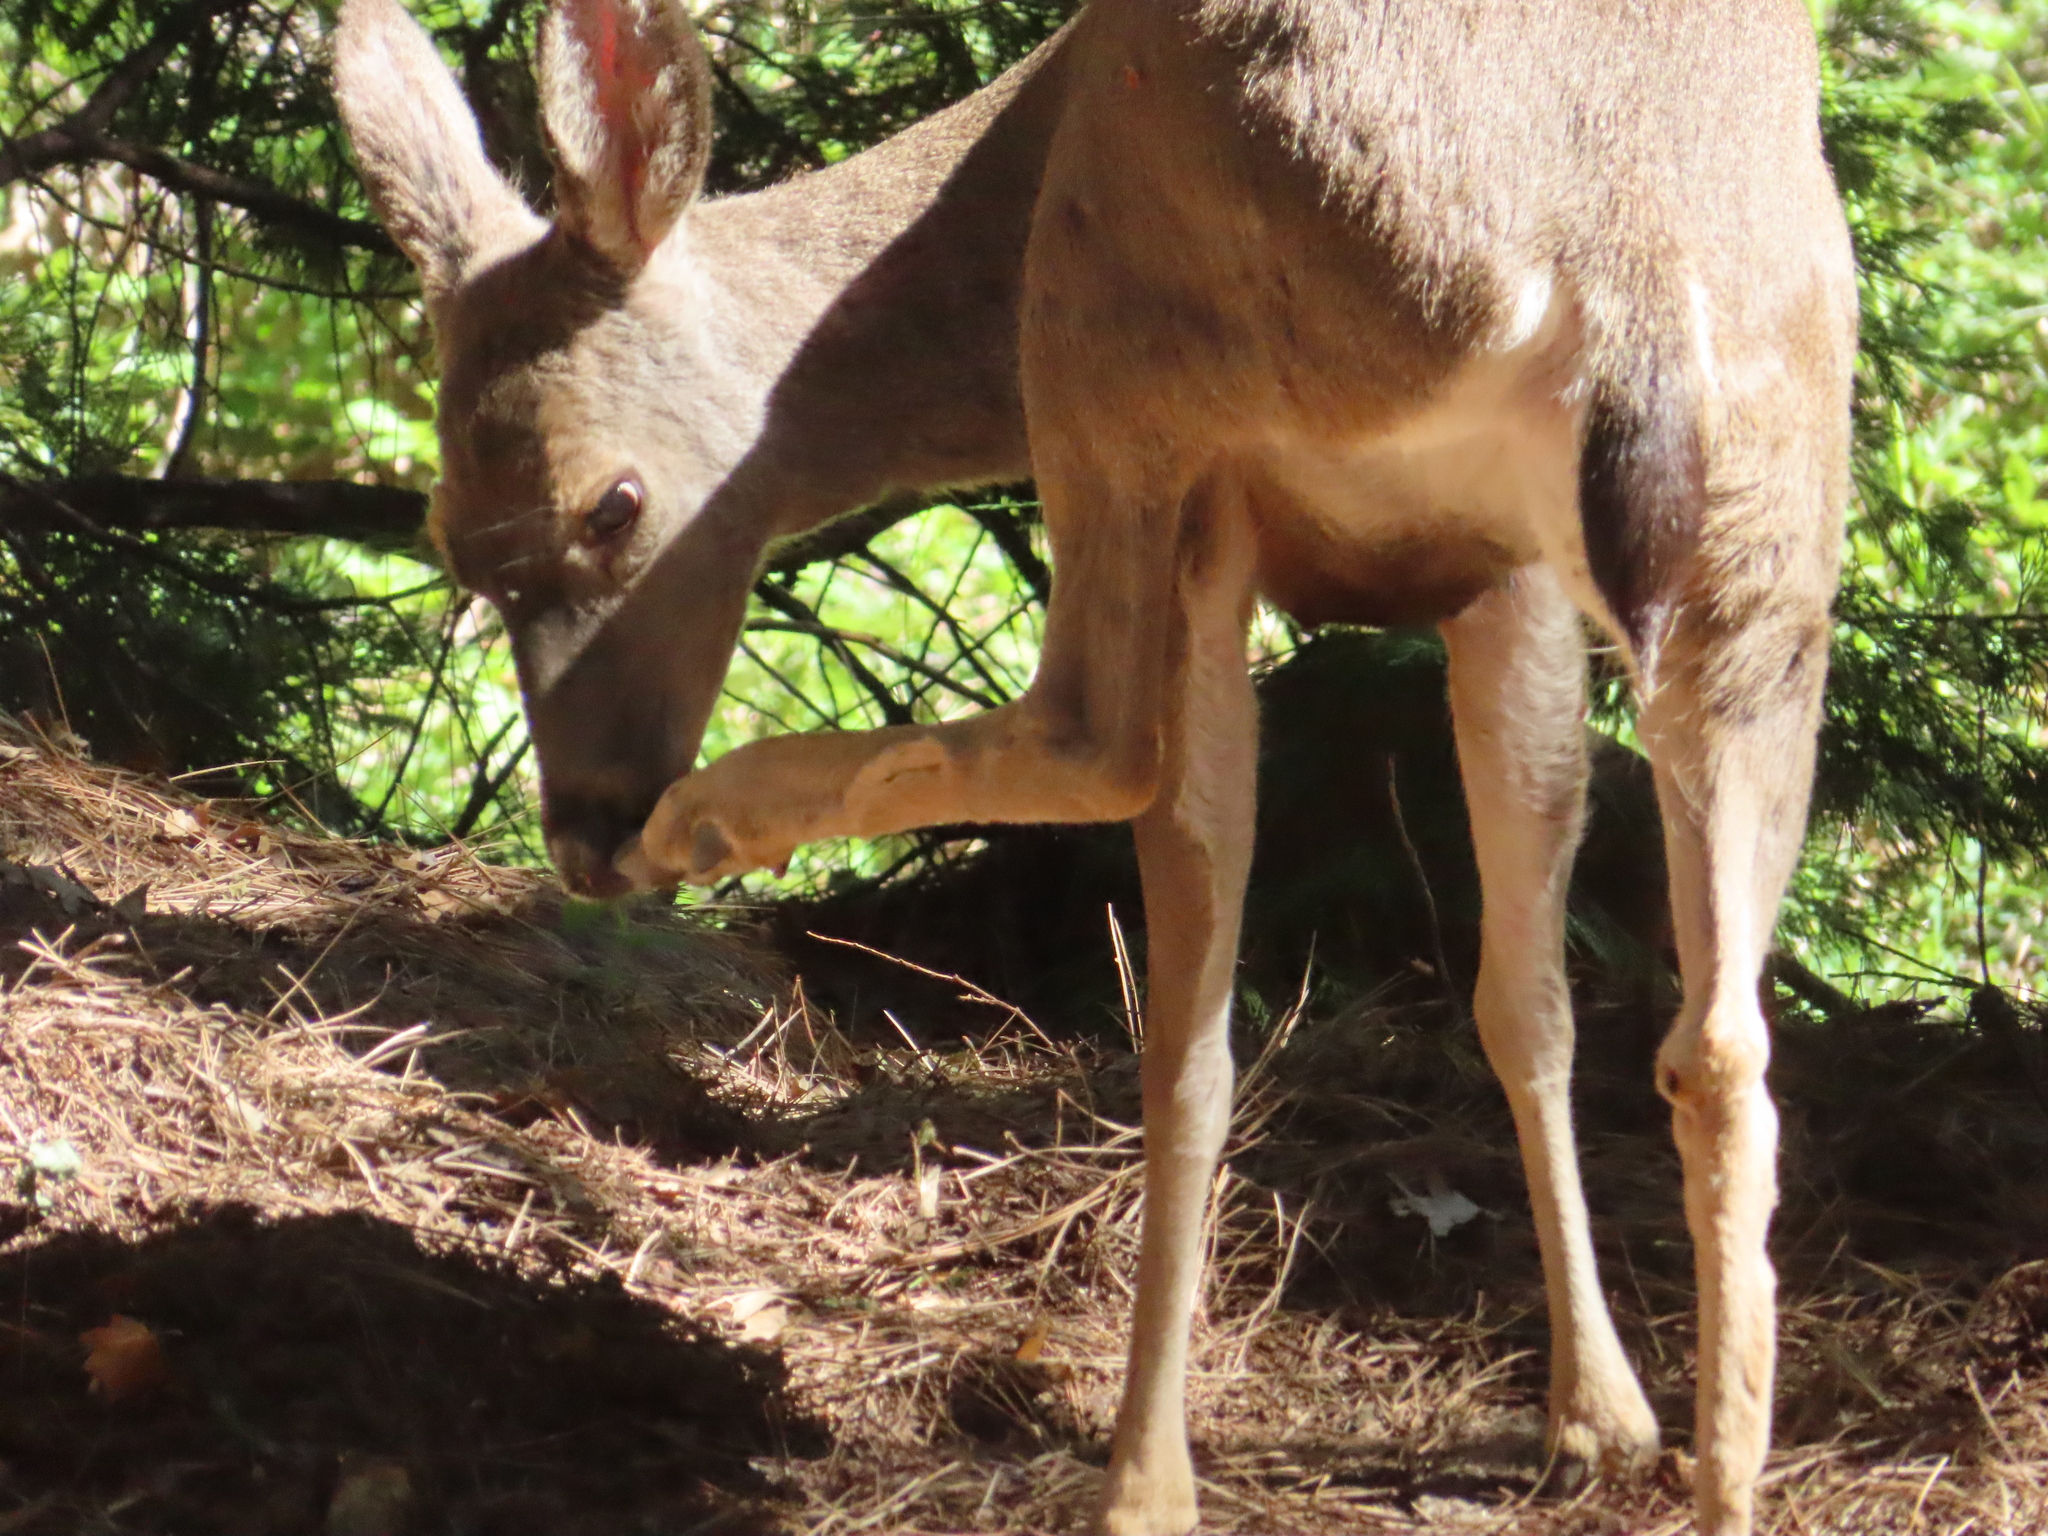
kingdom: Animalia
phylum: Chordata
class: Mammalia
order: Artiodactyla
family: Cervidae
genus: Odocoileus
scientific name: Odocoileus hemionus
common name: Mule deer
